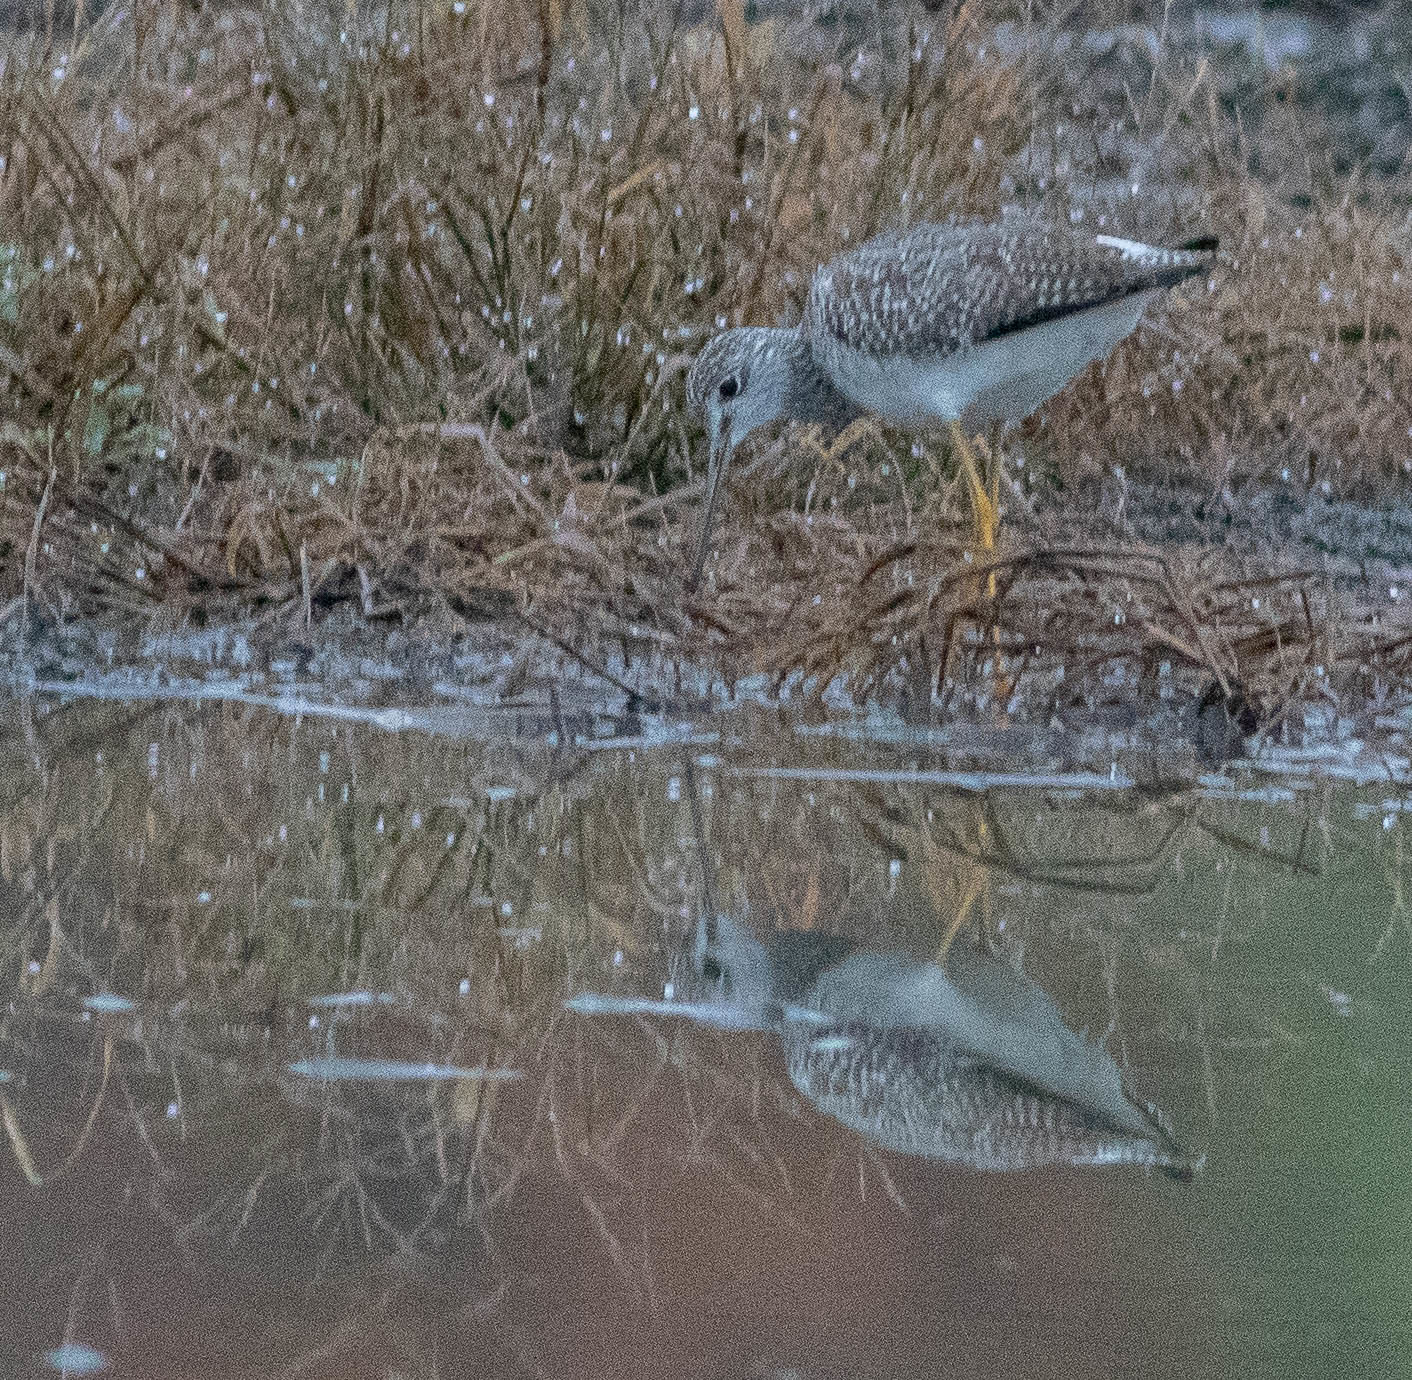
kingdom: Animalia
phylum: Chordata
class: Aves
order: Charadriiformes
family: Scolopacidae
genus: Tringa
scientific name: Tringa melanoleuca
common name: Greater yellowlegs
